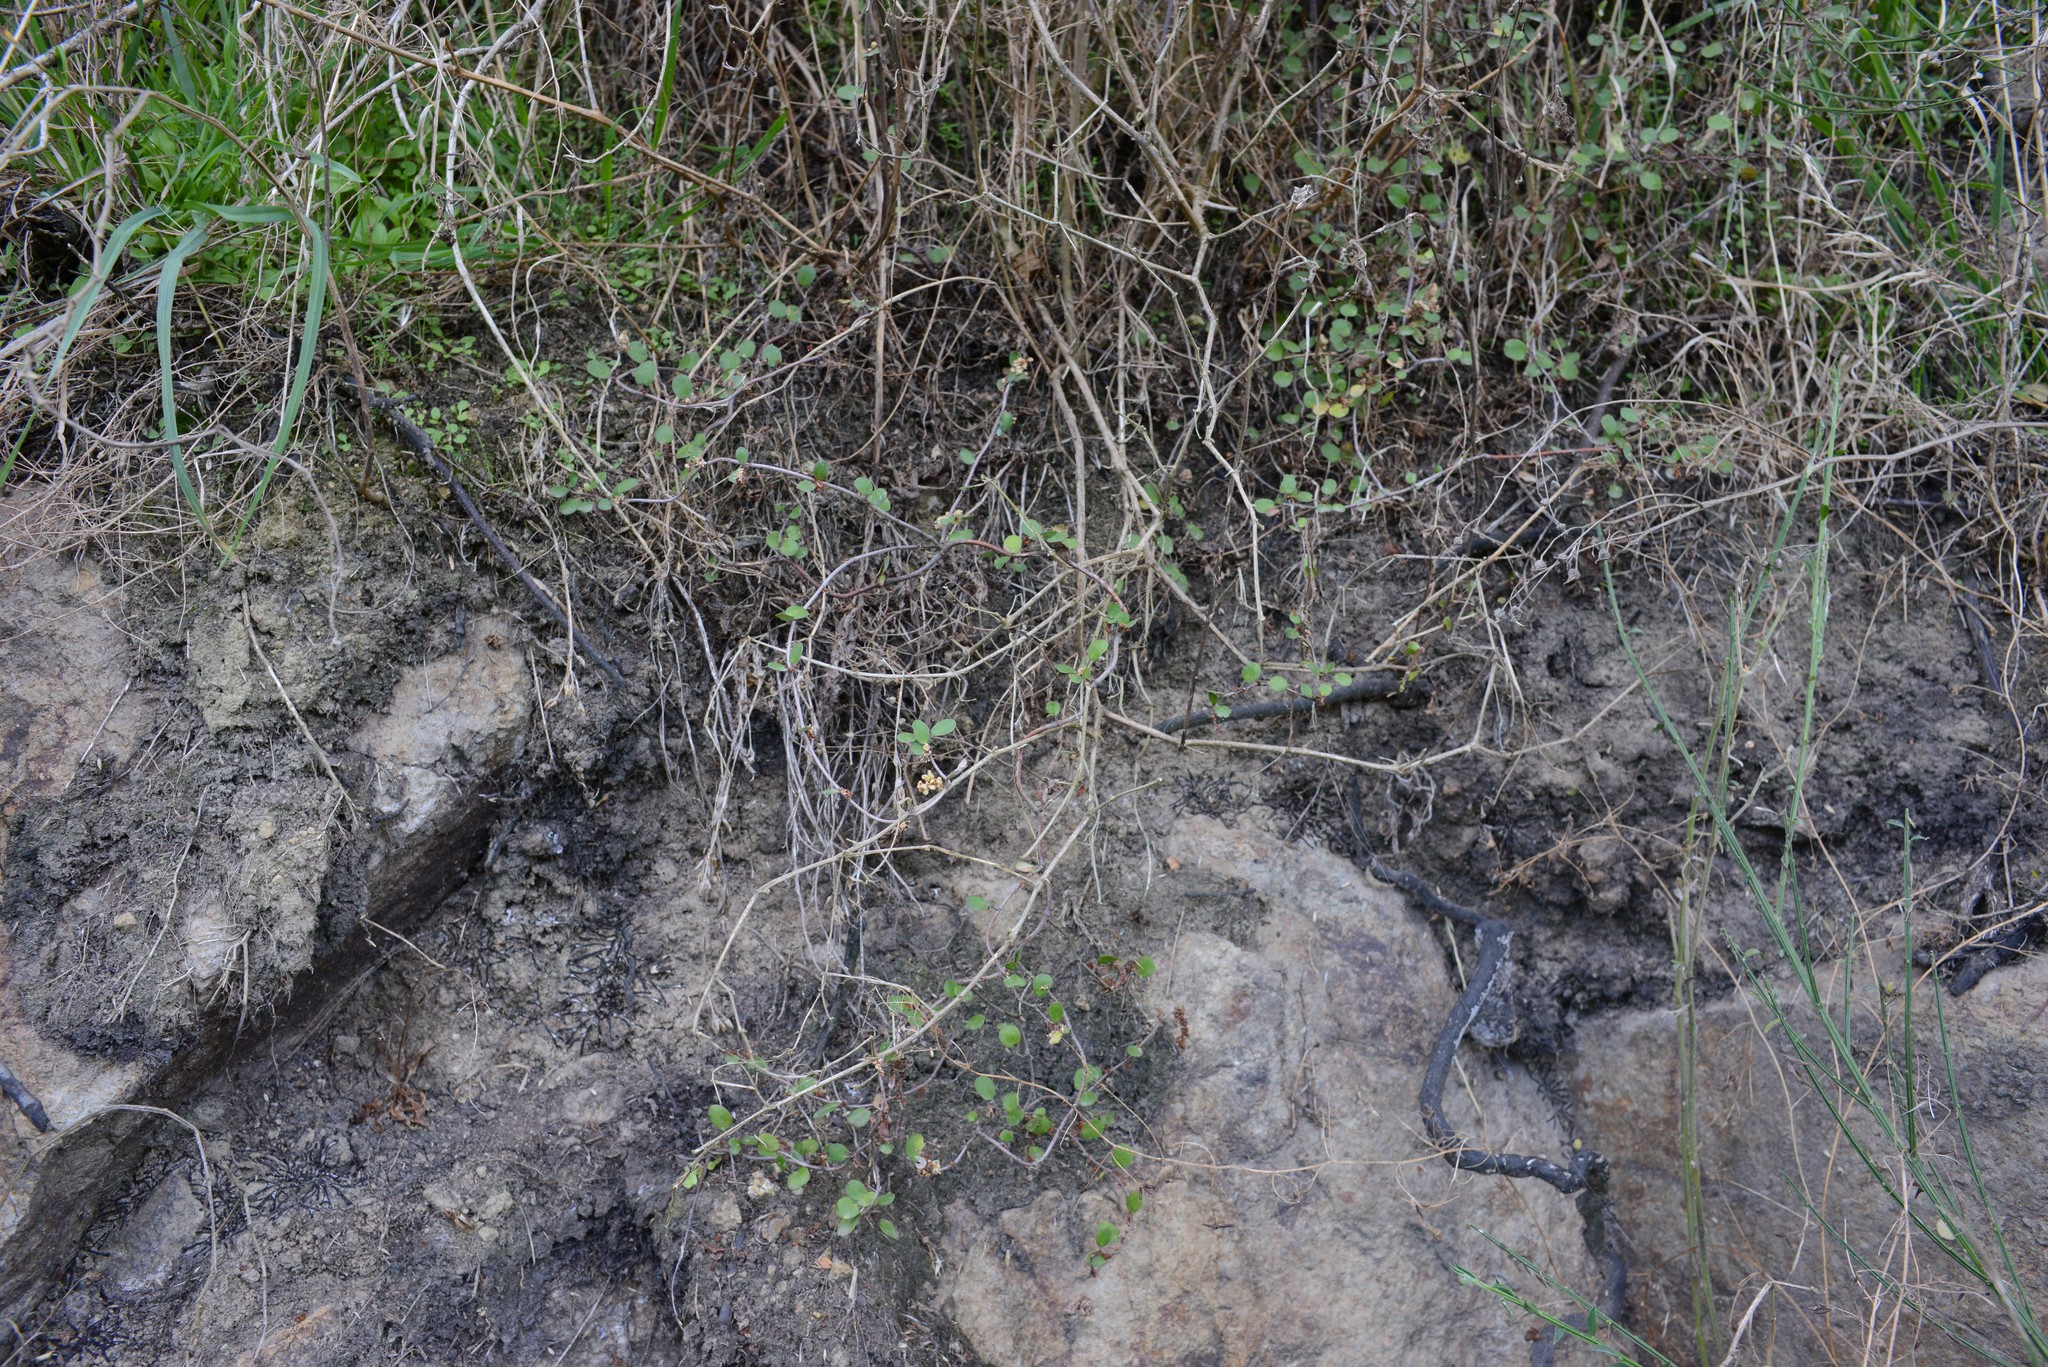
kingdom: Plantae
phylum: Tracheophyta
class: Magnoliopsida
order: Caryophyllales
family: Polygonaceae
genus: Muehlenbeckia
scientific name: Muehlenbeckia complexa
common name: Wireplant
